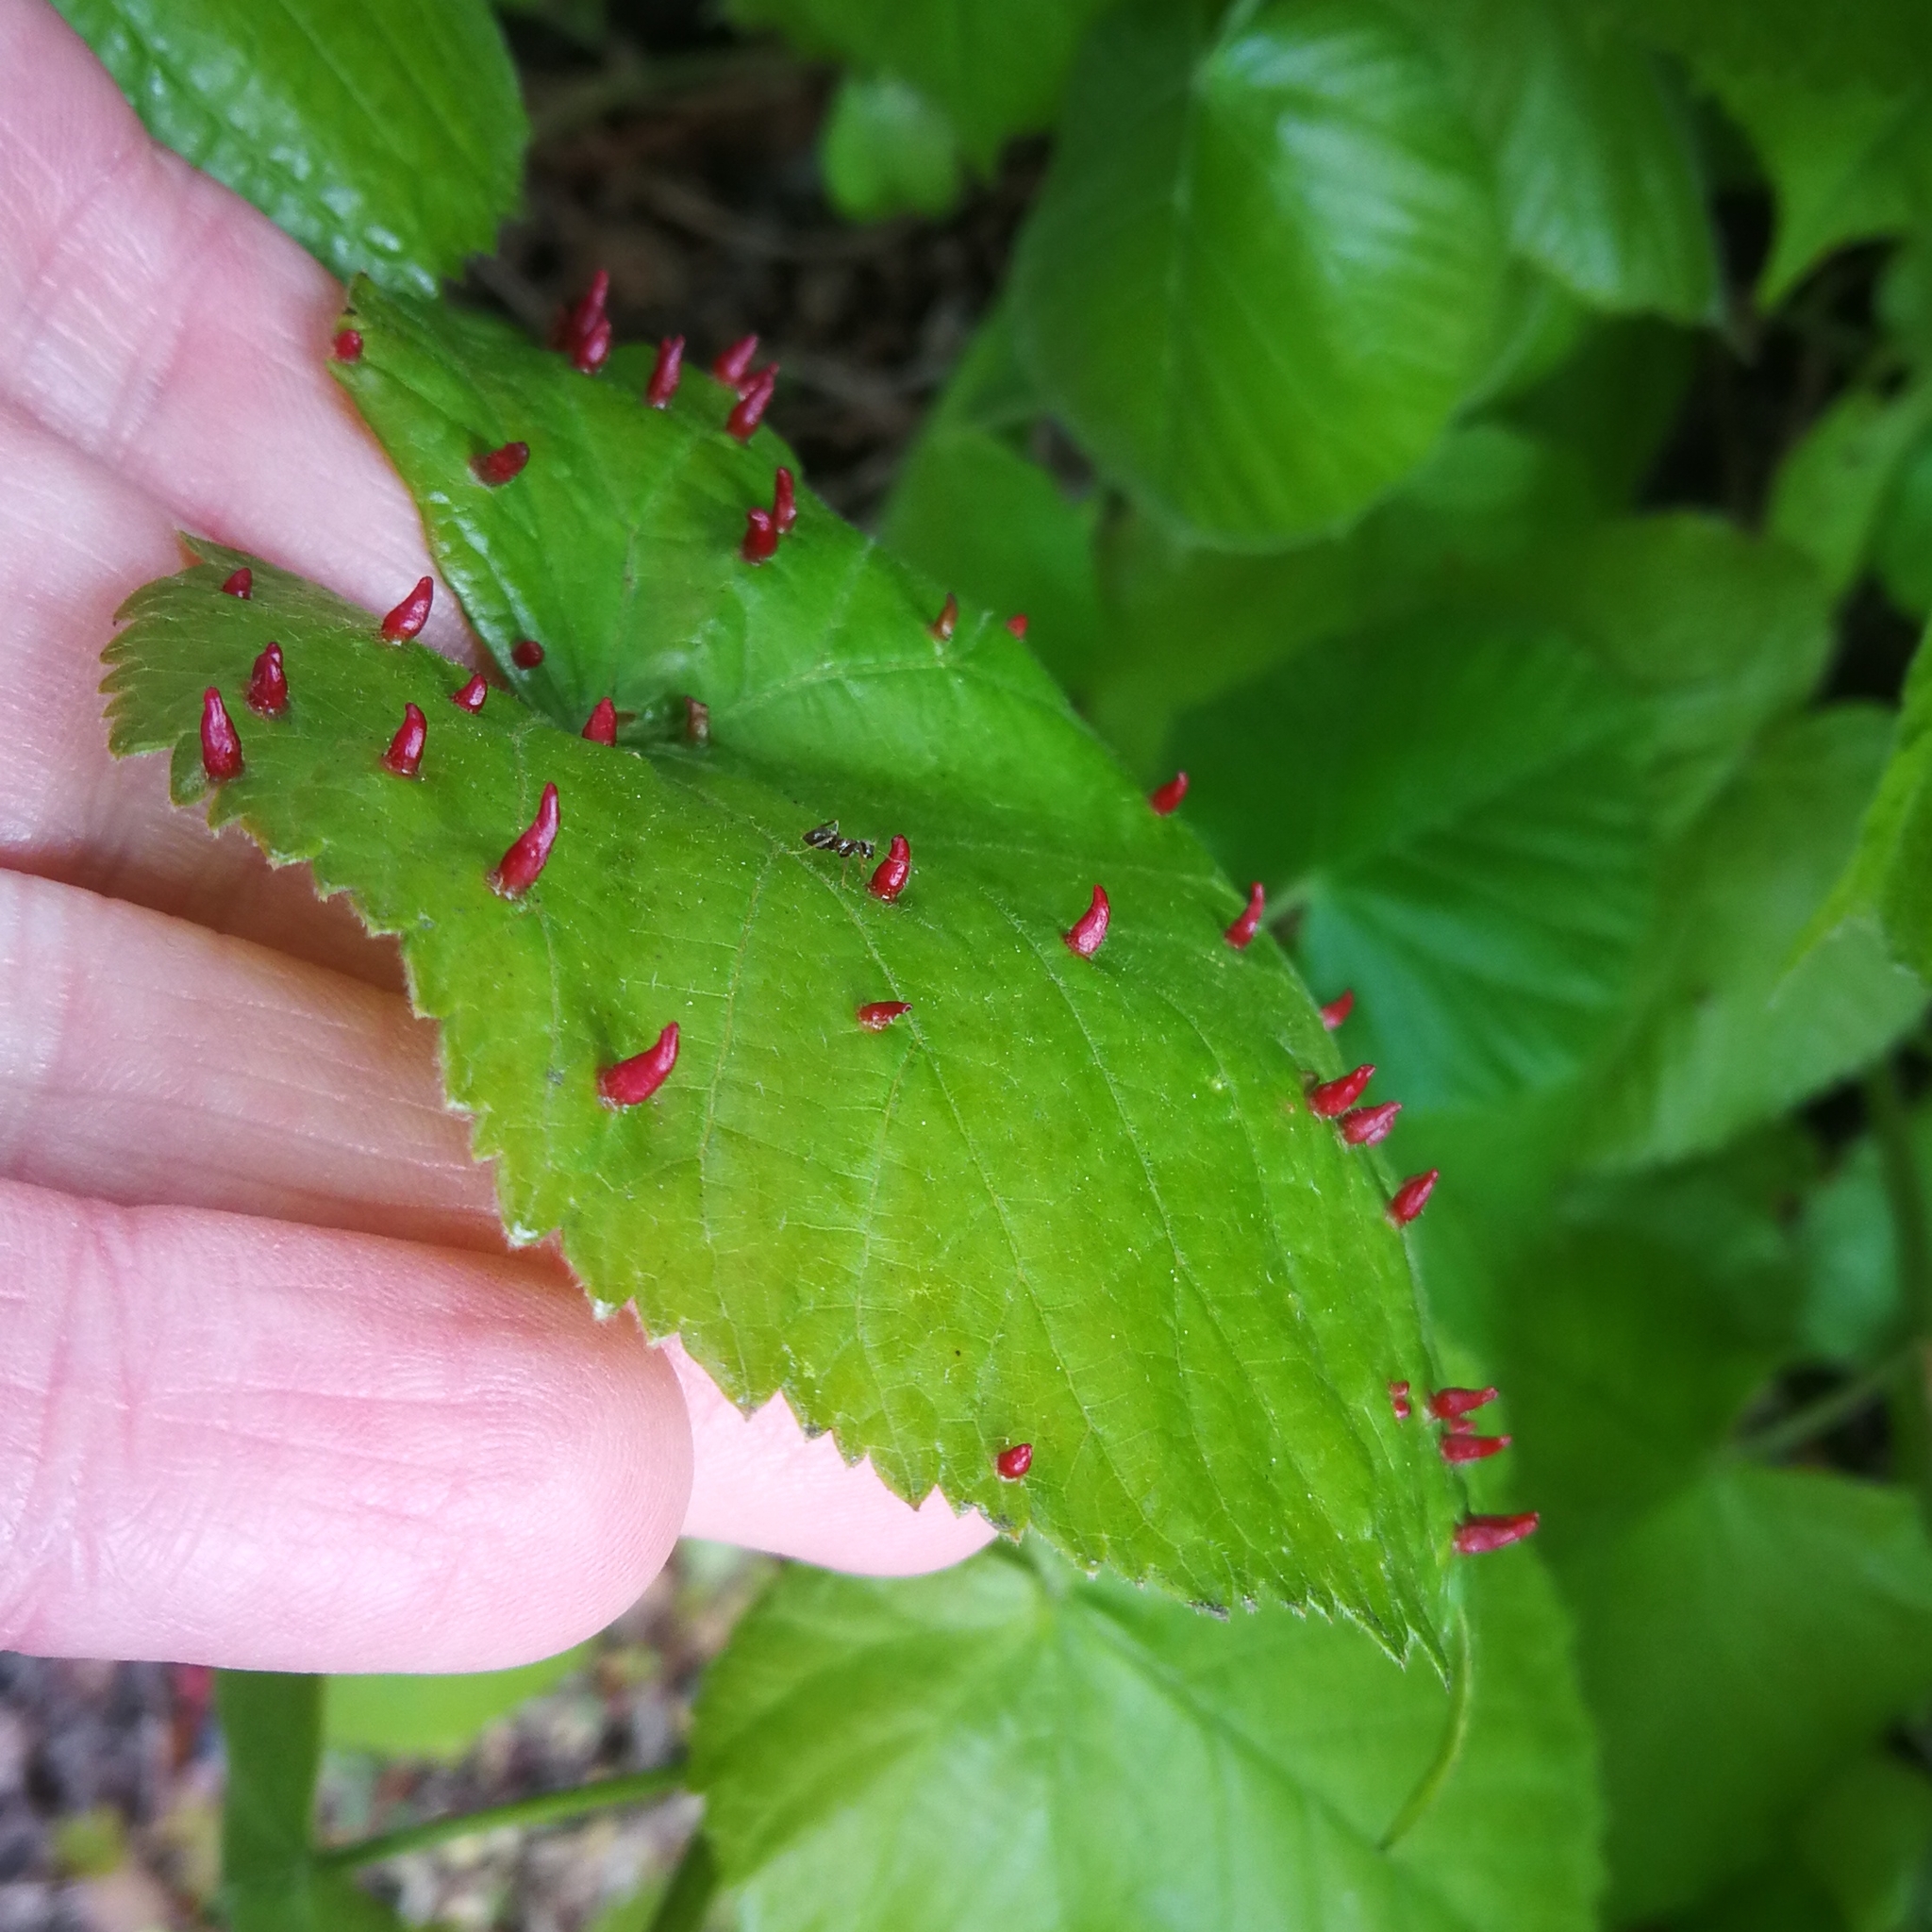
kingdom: Animalia
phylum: Arthropoda
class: Arachnida
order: Trombidiformes
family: Eriophyidae
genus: Eriophyes
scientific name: Eriophyes tiliae
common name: Red nail gall mite
